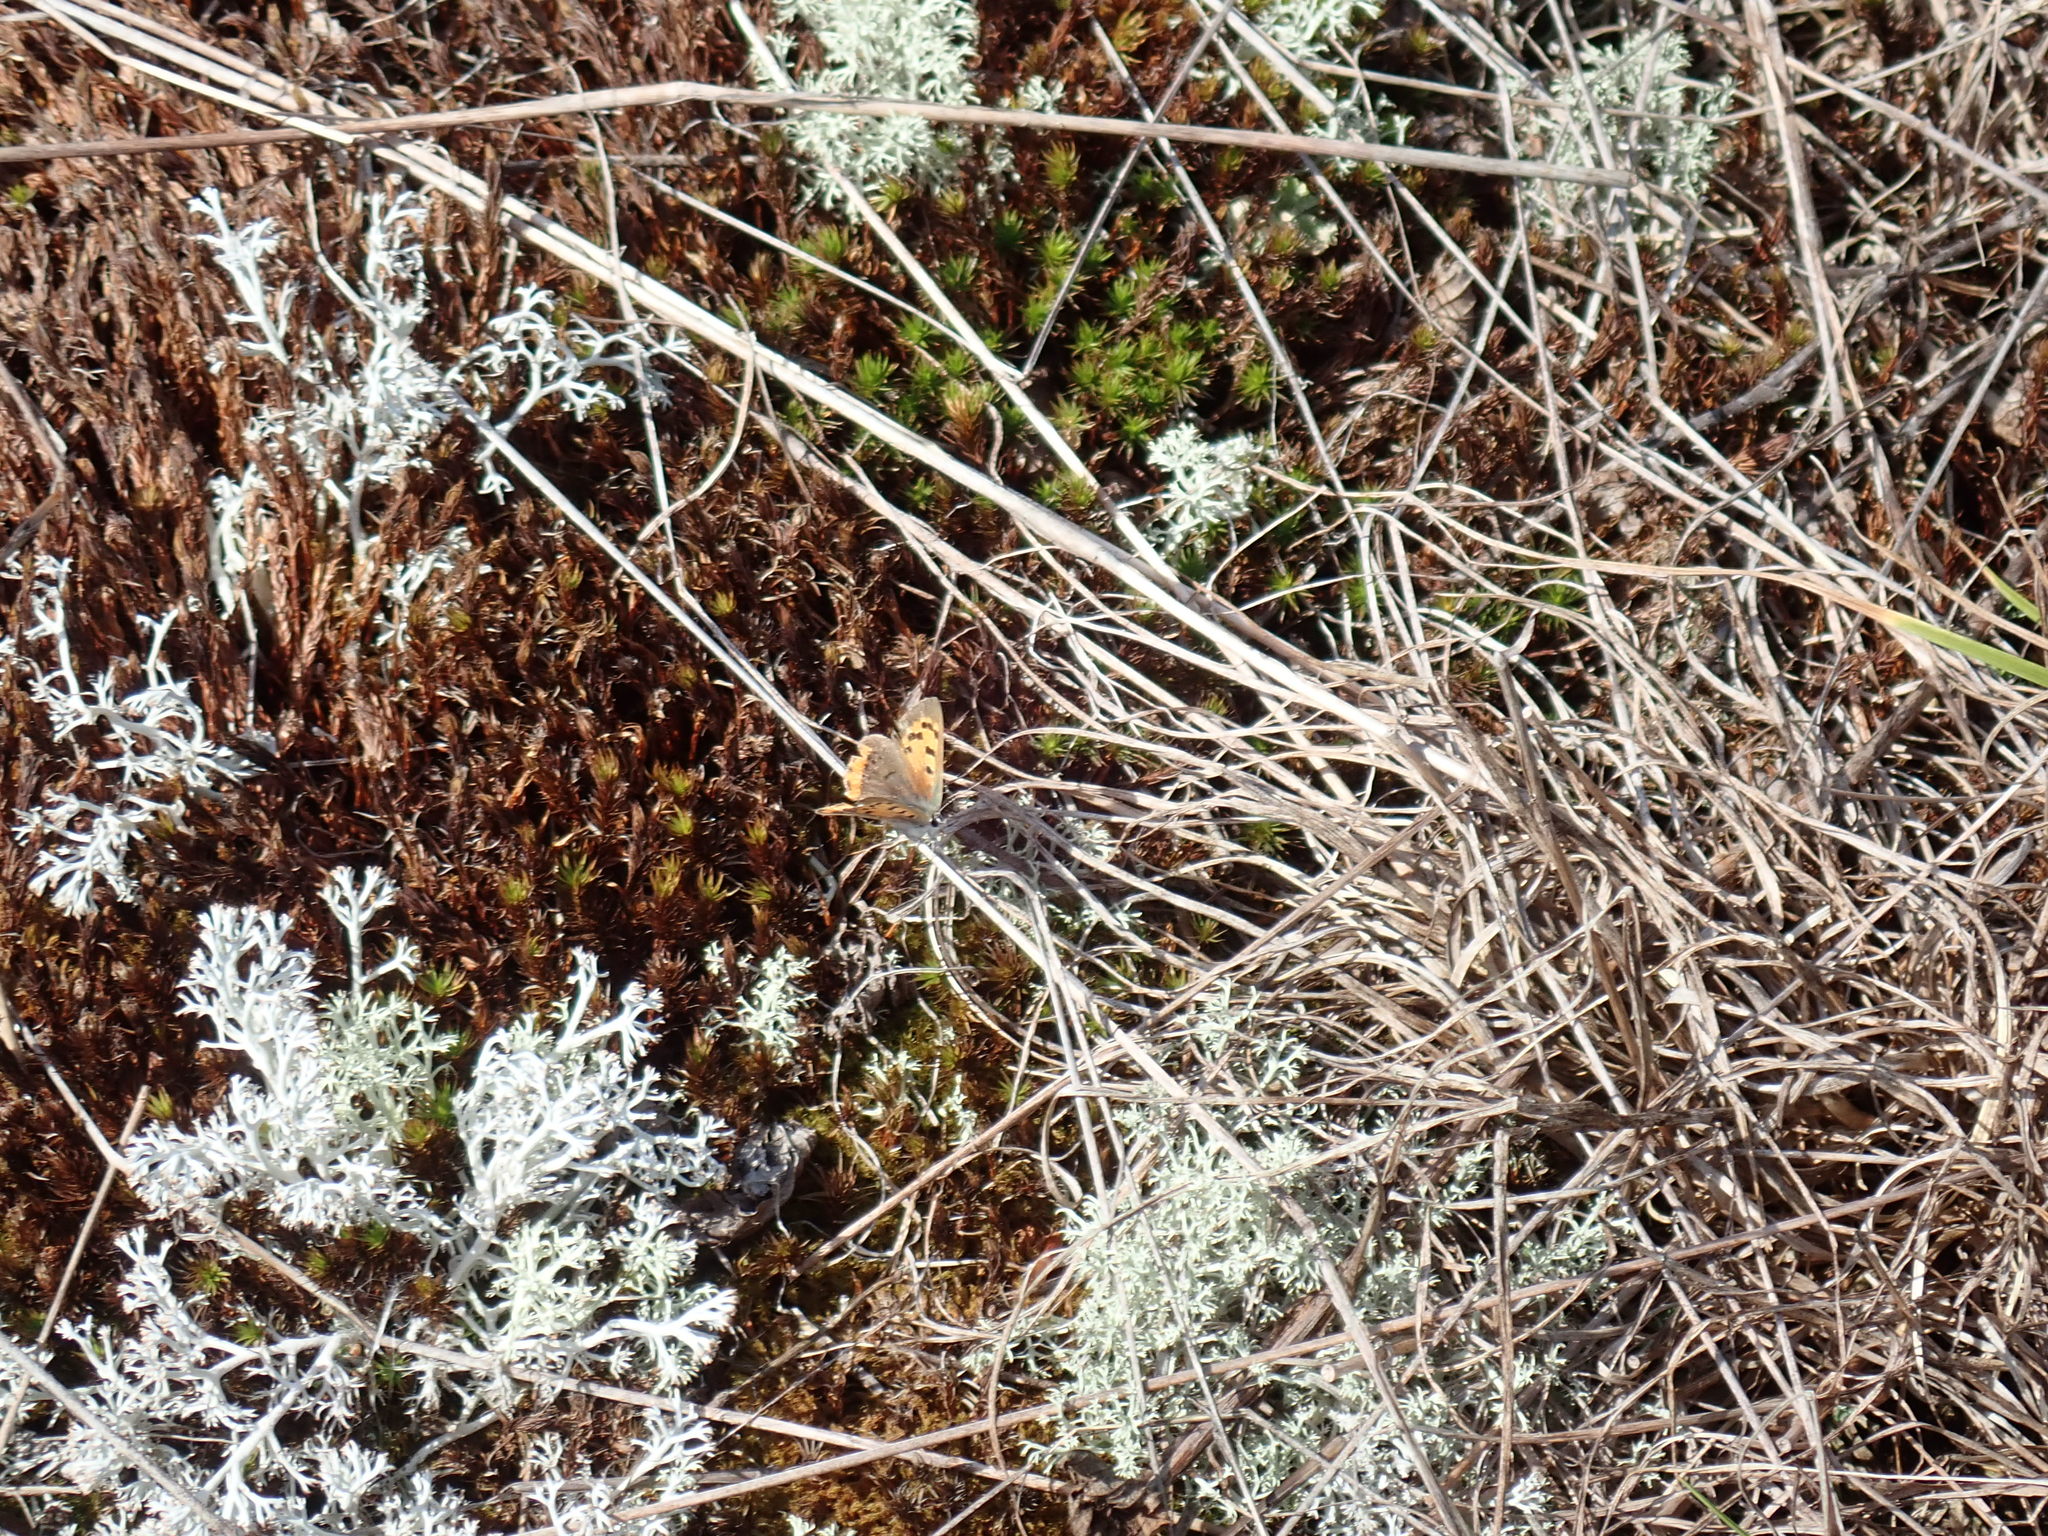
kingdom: Animalia
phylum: Arthropoda
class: Insecta
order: Lepidoptera
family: Lycaenidae
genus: Lycaena
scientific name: Lycaena hypophlaeas
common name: American copper
